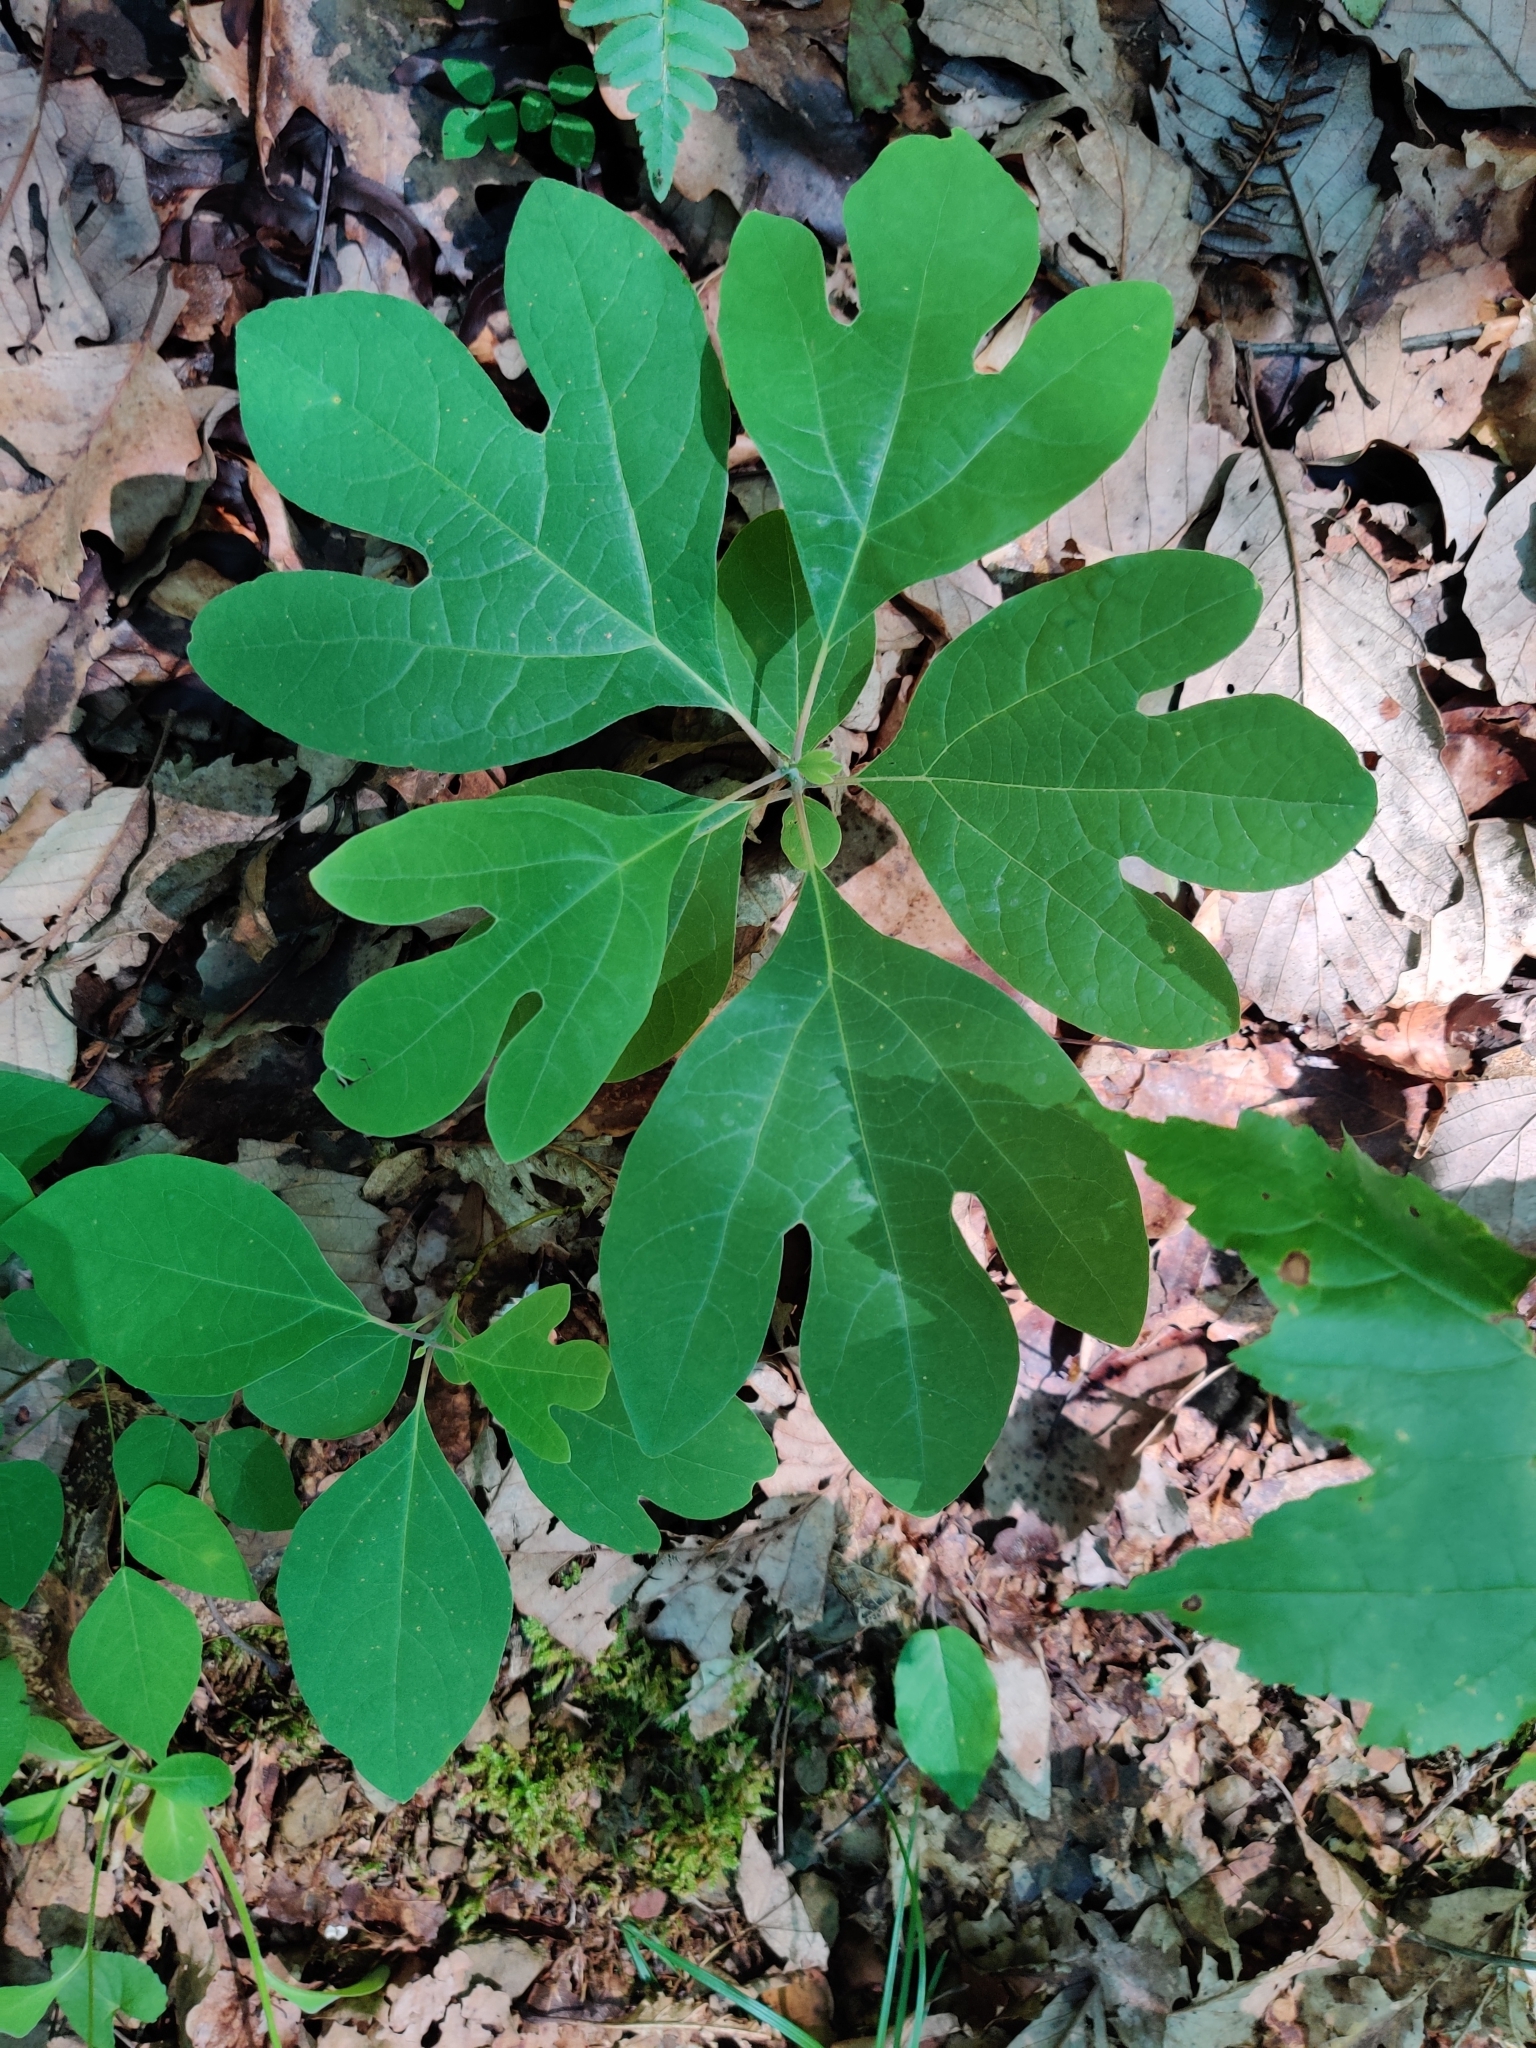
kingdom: Plantae
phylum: Tracheophyta
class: Magnoliopsida
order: Laurales
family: Lauraceae
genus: Sassafras
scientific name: Sassafras albidum
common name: Sassafras
